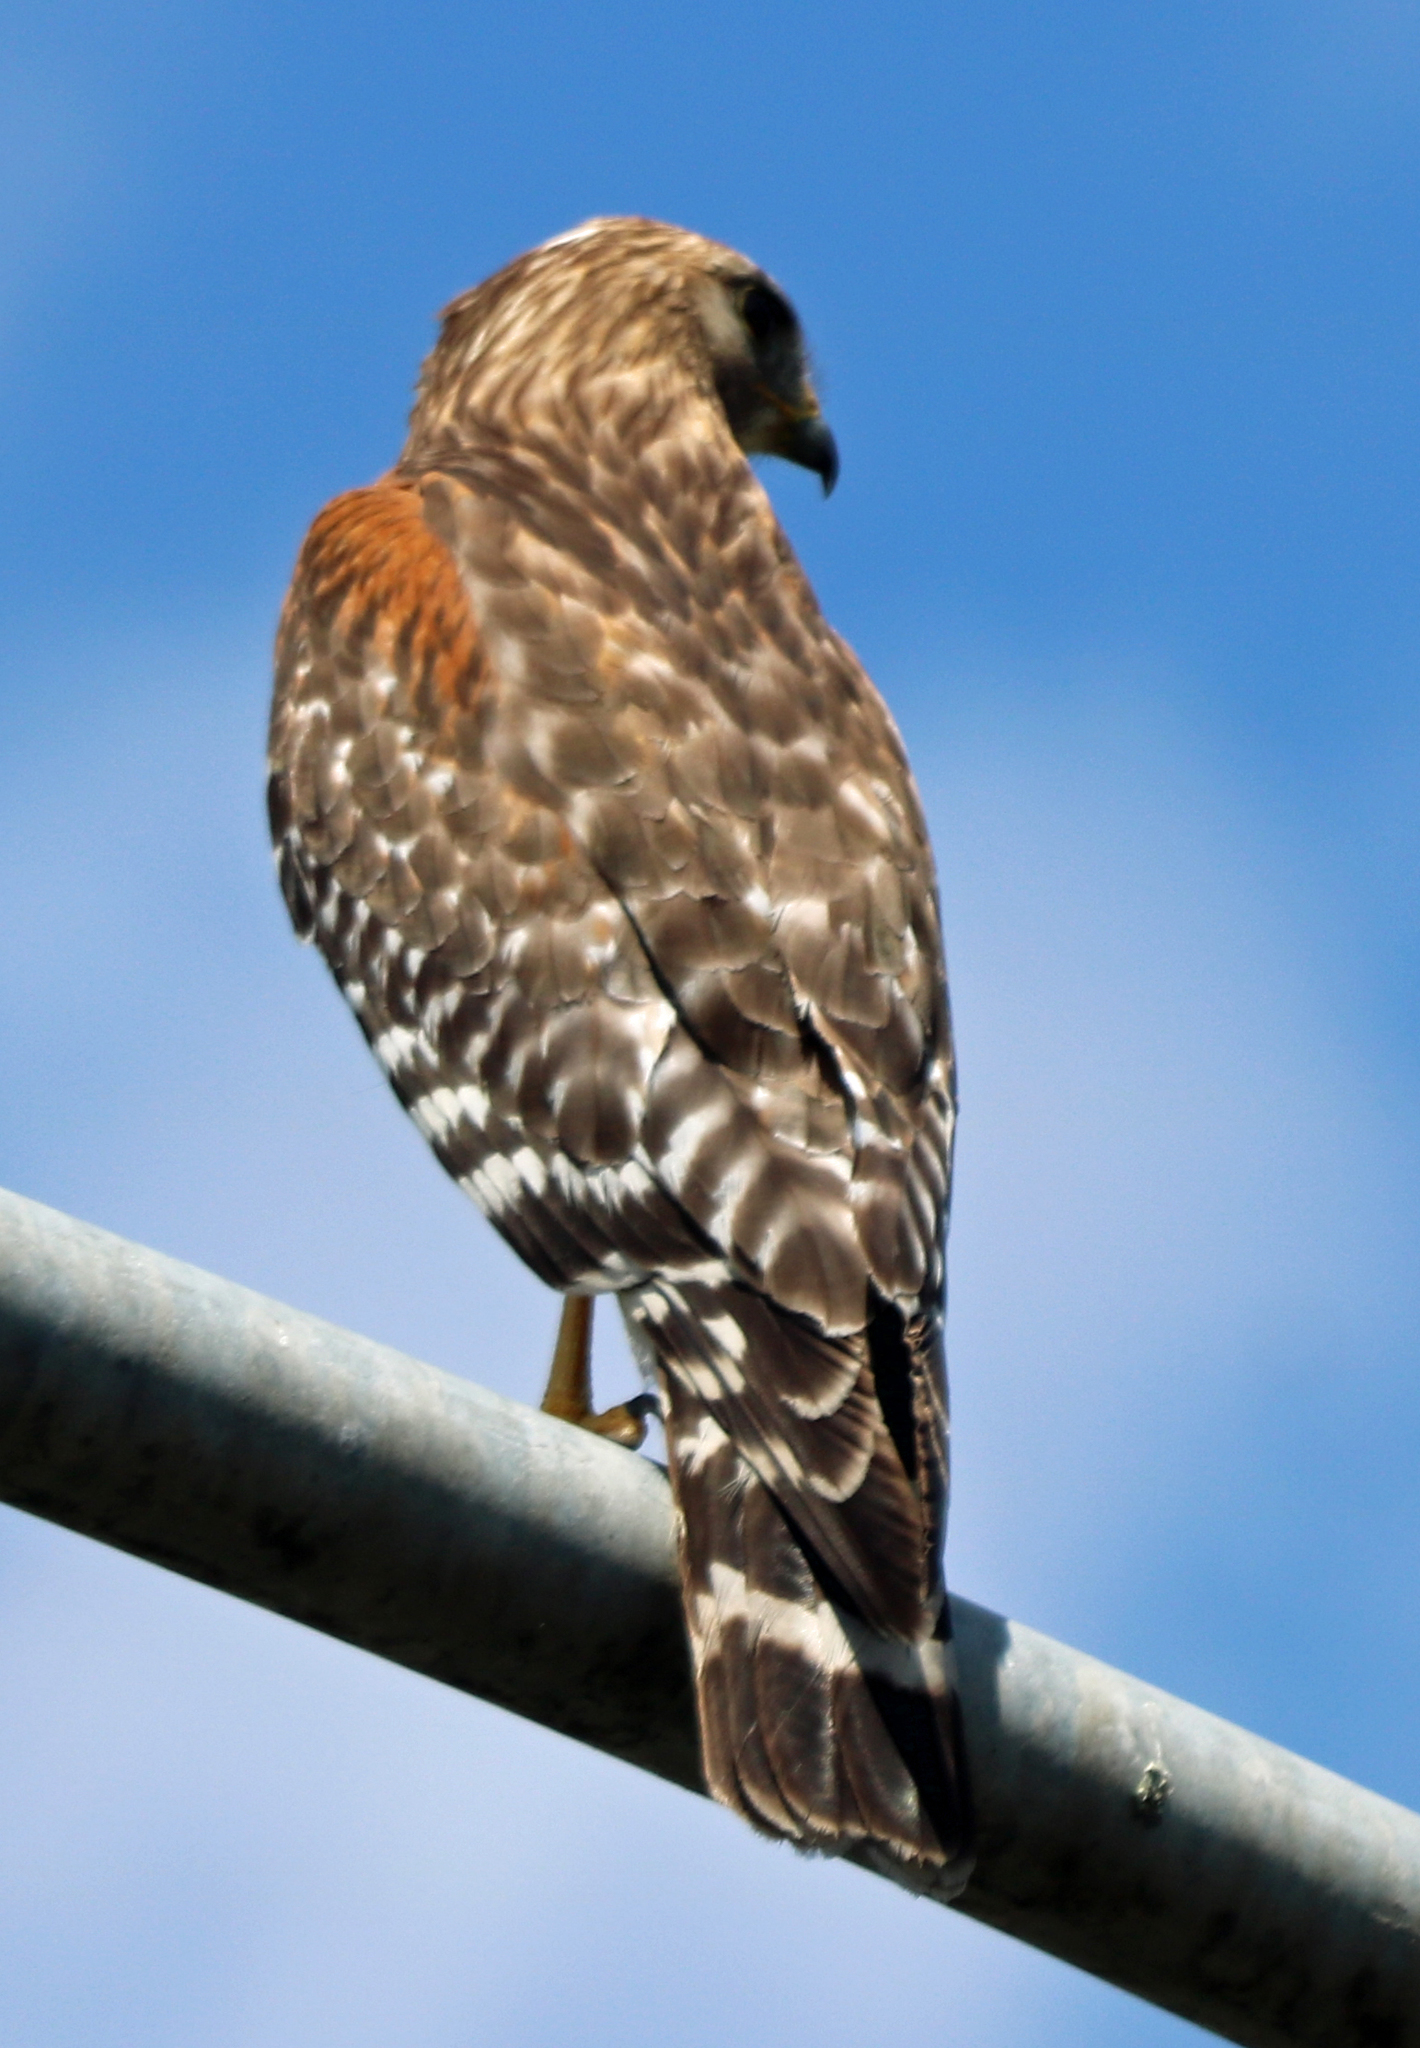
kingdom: Animalia
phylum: Chordata
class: Aves
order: Accipitriformes
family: Accipitridae
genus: Buteo
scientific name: Buteo lineatus
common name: Red-shouldered hawk
